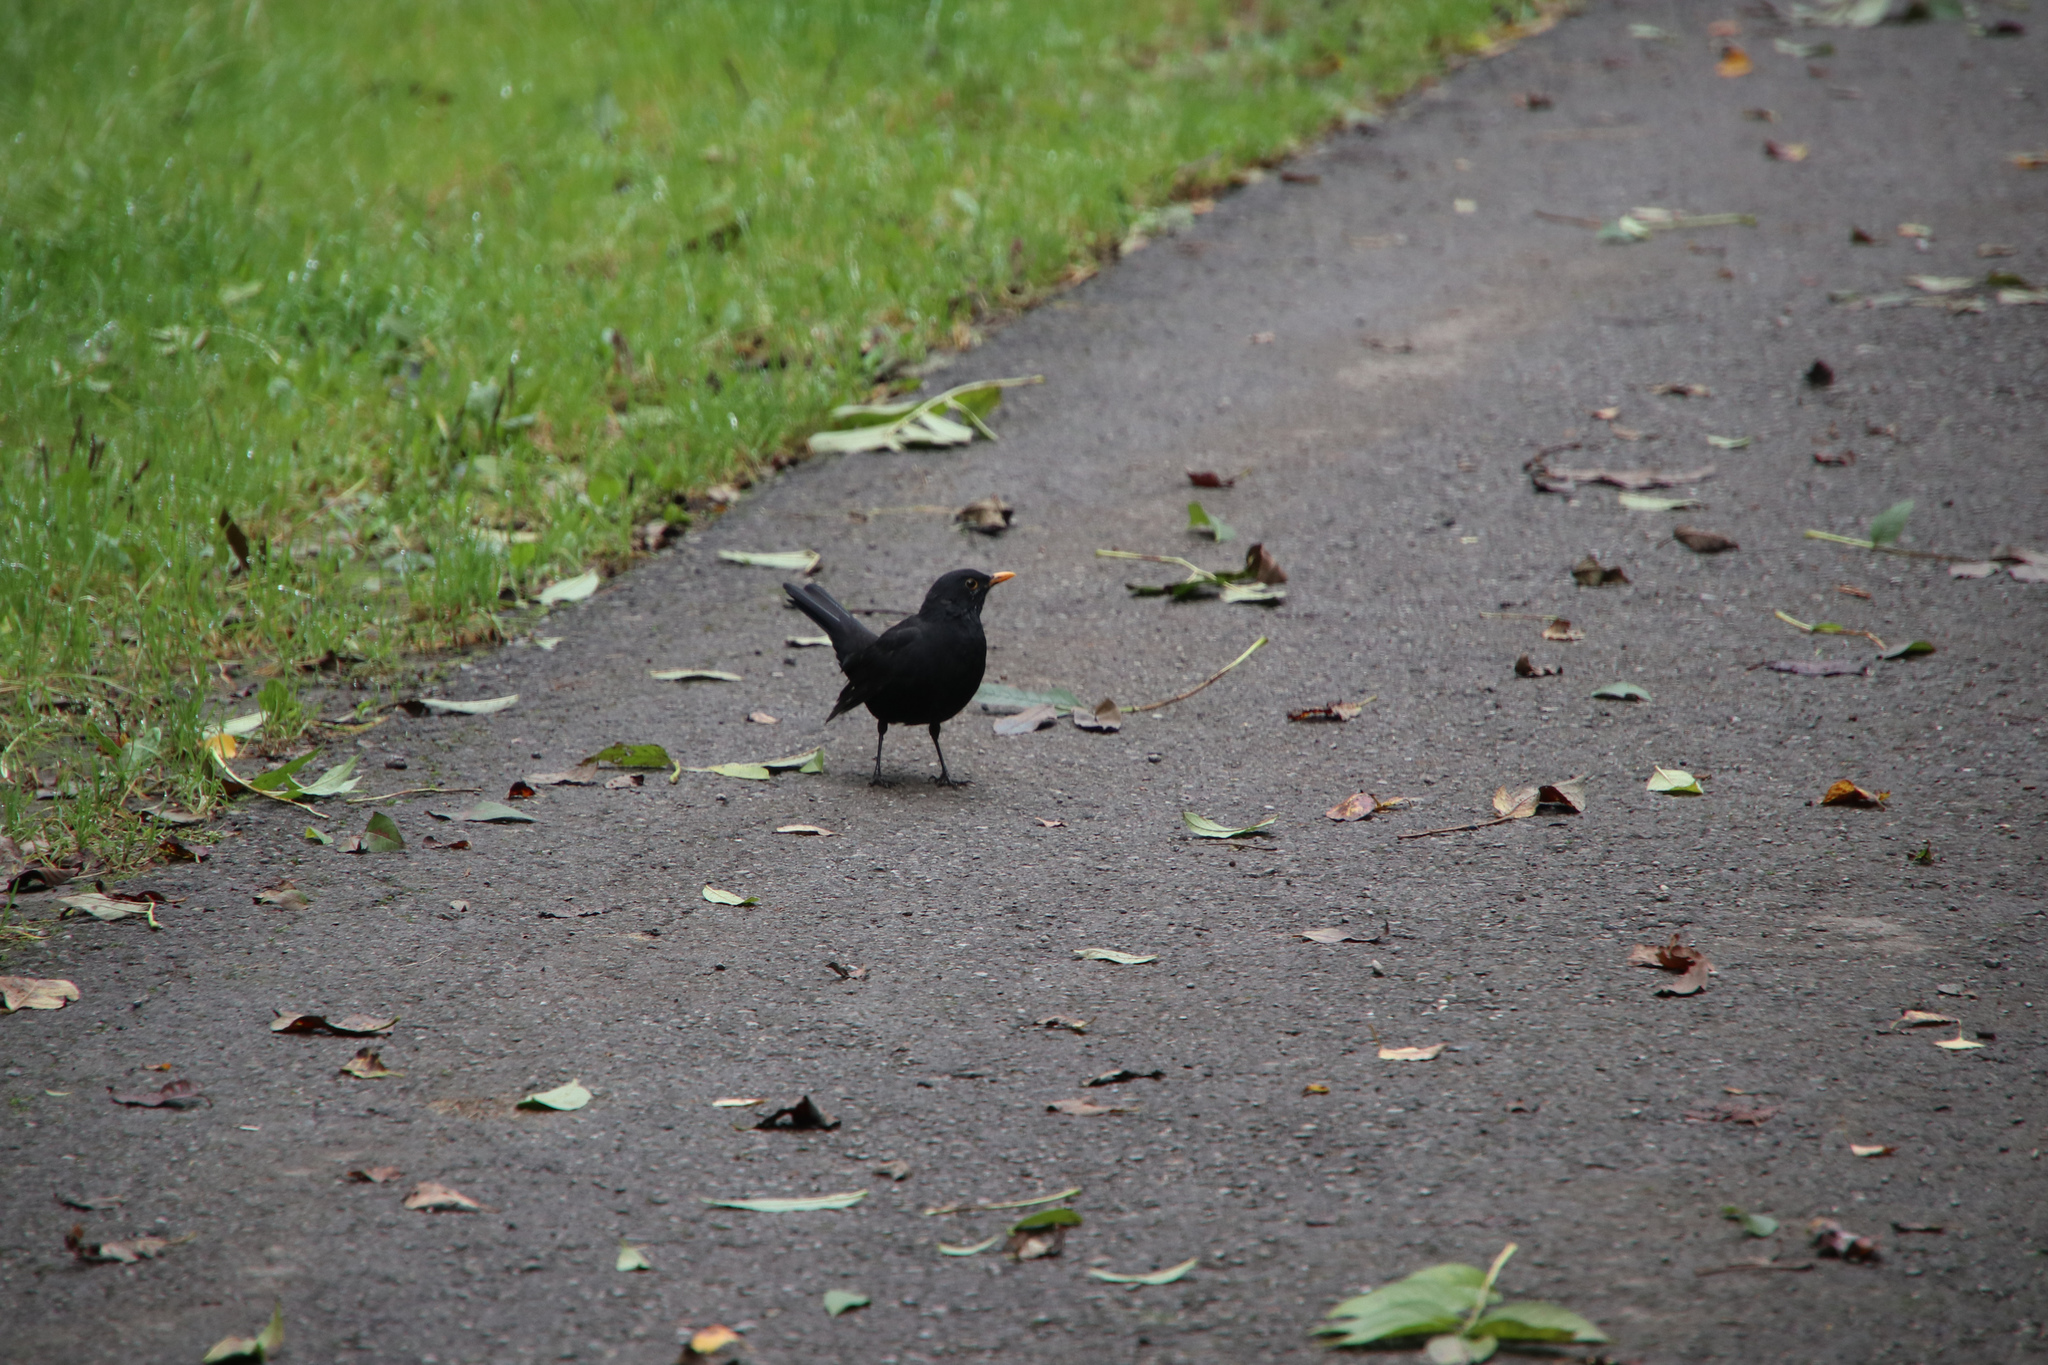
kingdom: Animalia
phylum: Chordata
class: Aves
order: Passeriformes
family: Turdidae
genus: Turdus
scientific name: Turdus merula
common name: Common blackbird
